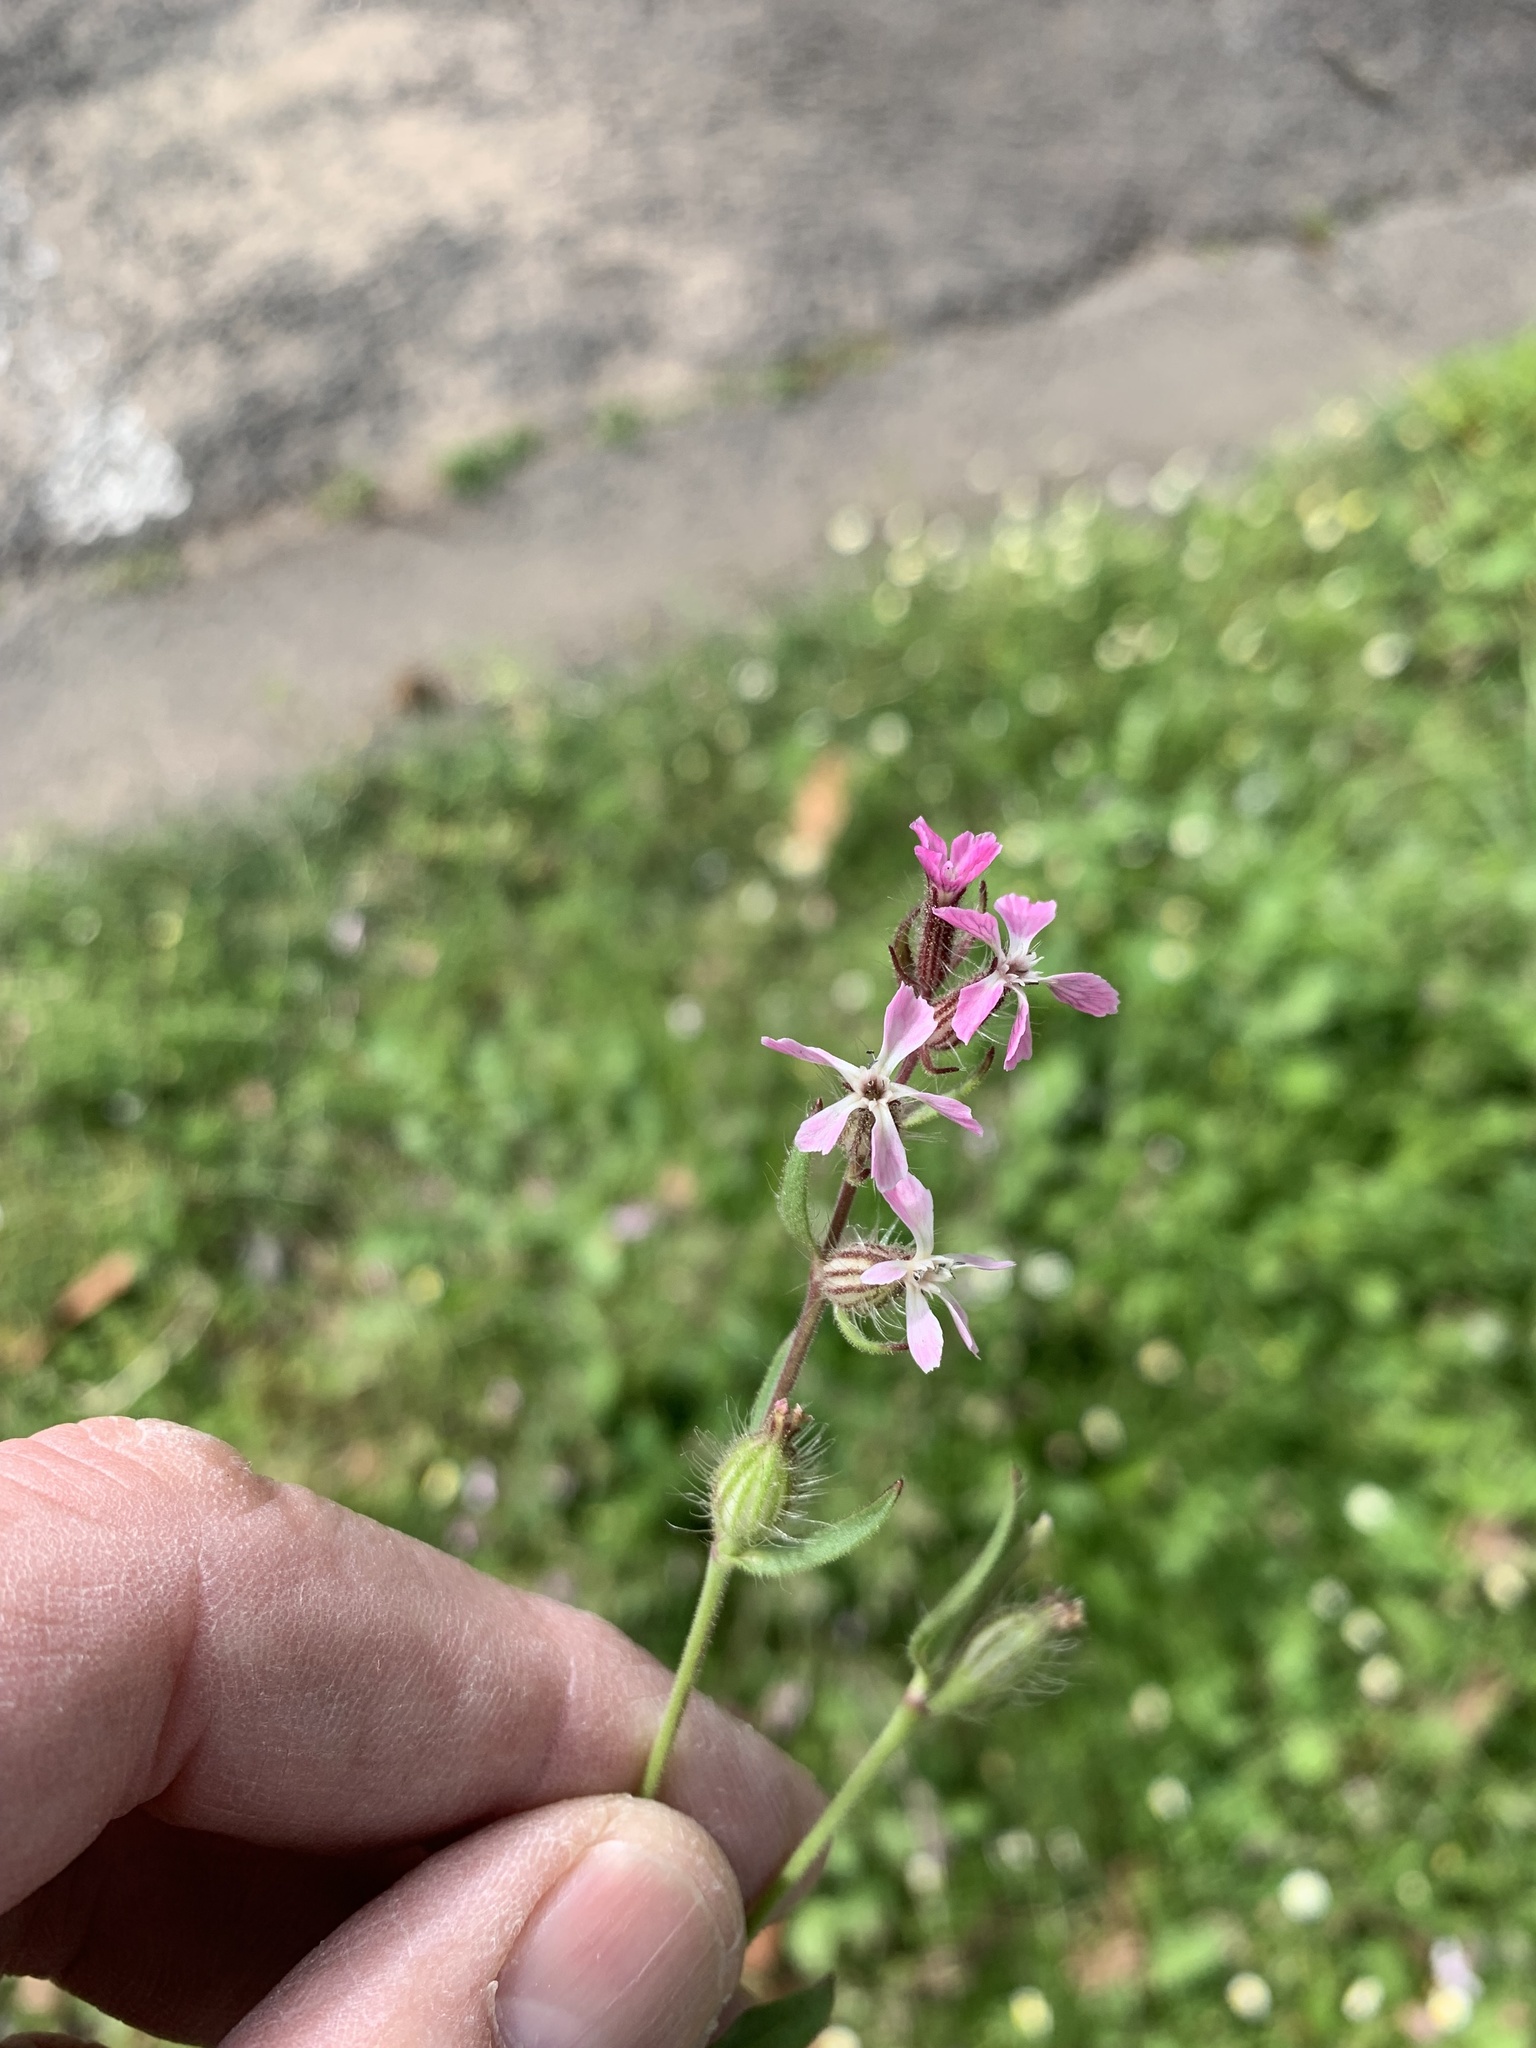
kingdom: Plantae
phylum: Tracheophyta
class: Magnoliopsida
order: Caryophyllales
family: Caryophyllaceae
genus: Silene
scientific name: Silene gallica
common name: Small-flowered catchfly
